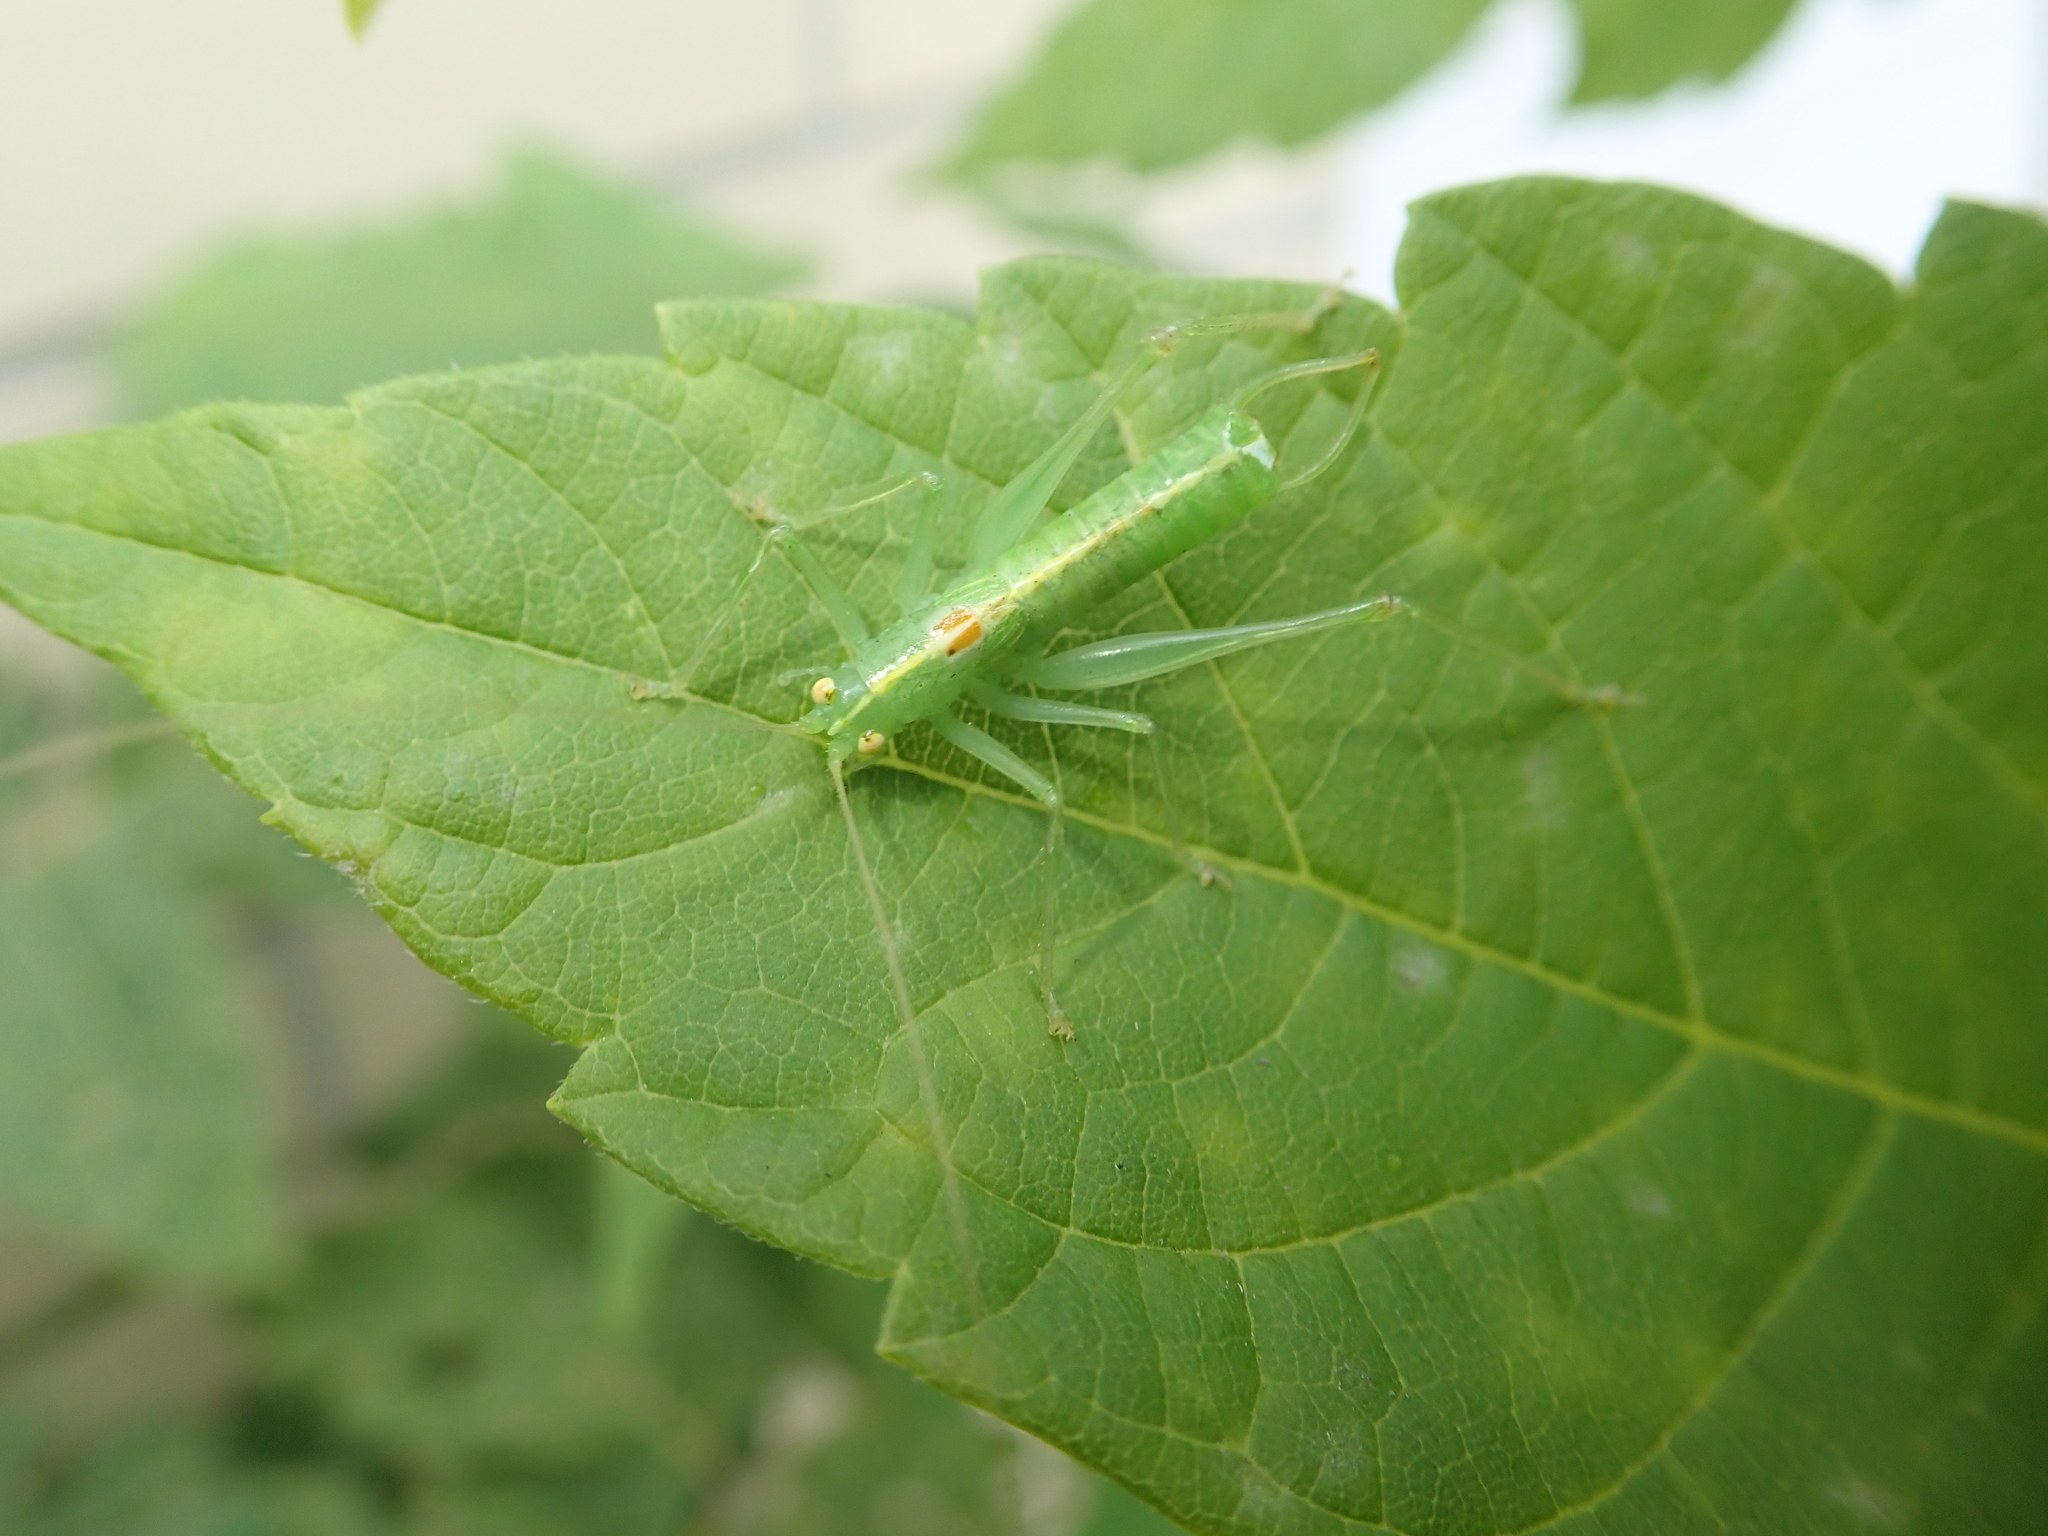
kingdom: Animalia
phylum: Arthropoda
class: Insecta
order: Orthoptera
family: Tettigoniidae
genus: Meconema
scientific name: Meconema meridionale
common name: Southern oak bush-cricket
